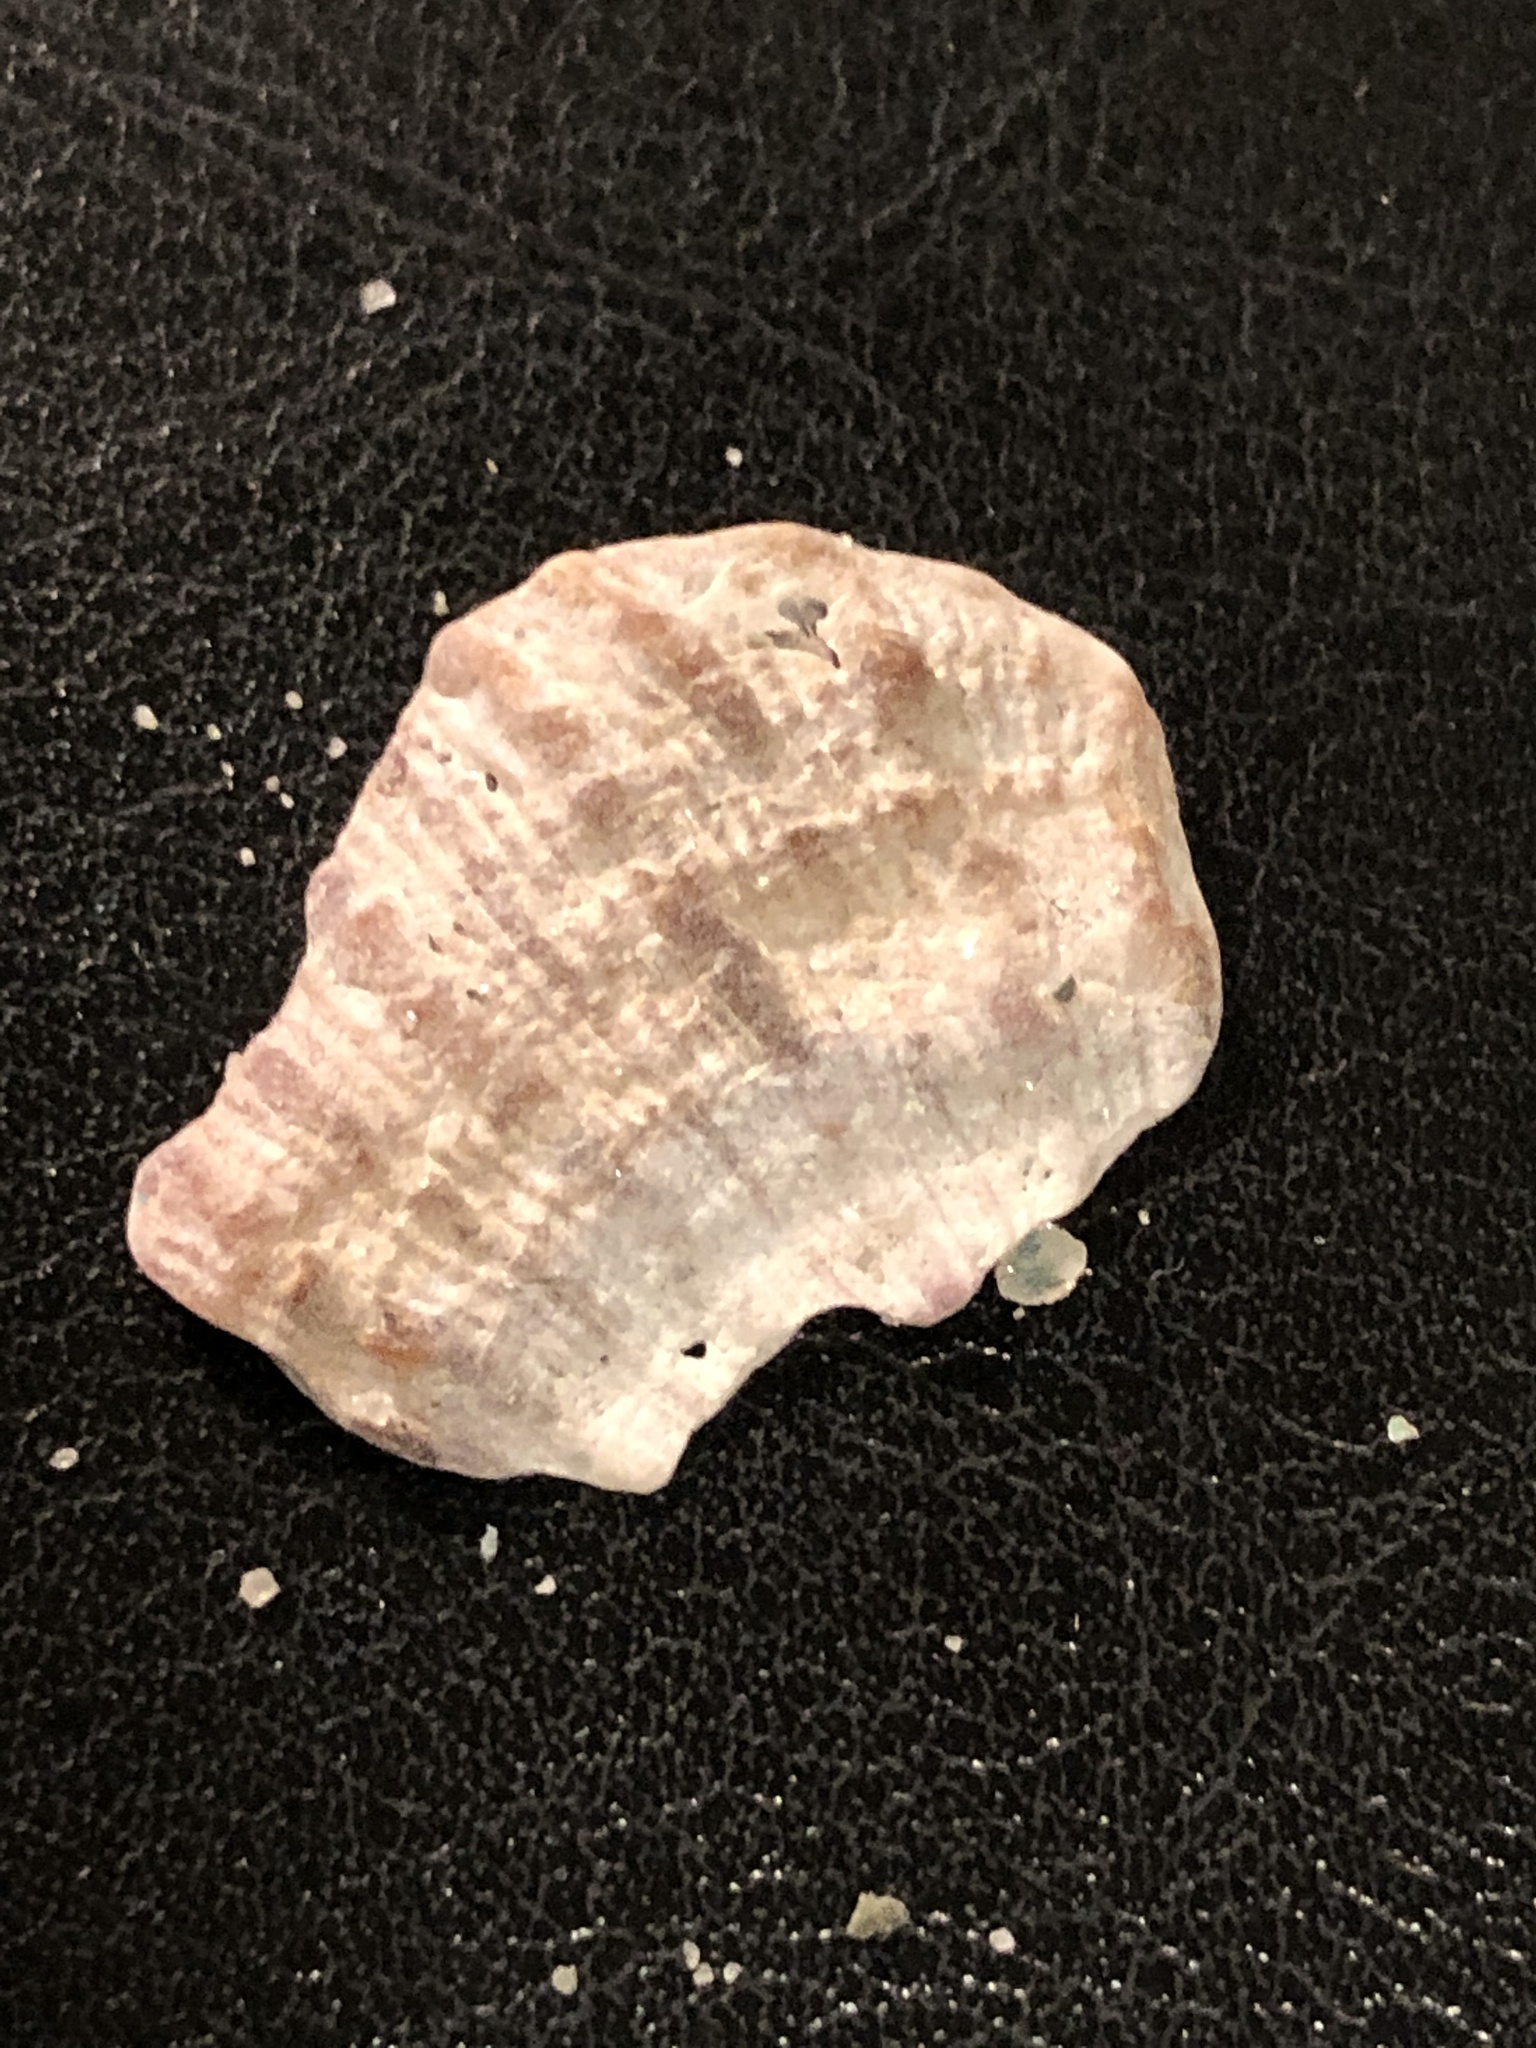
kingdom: Animalia
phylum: Mollusca
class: Bivalvia
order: Pectinida
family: Pectinidae
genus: Crassadoma
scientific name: Crassadoma gigantea
